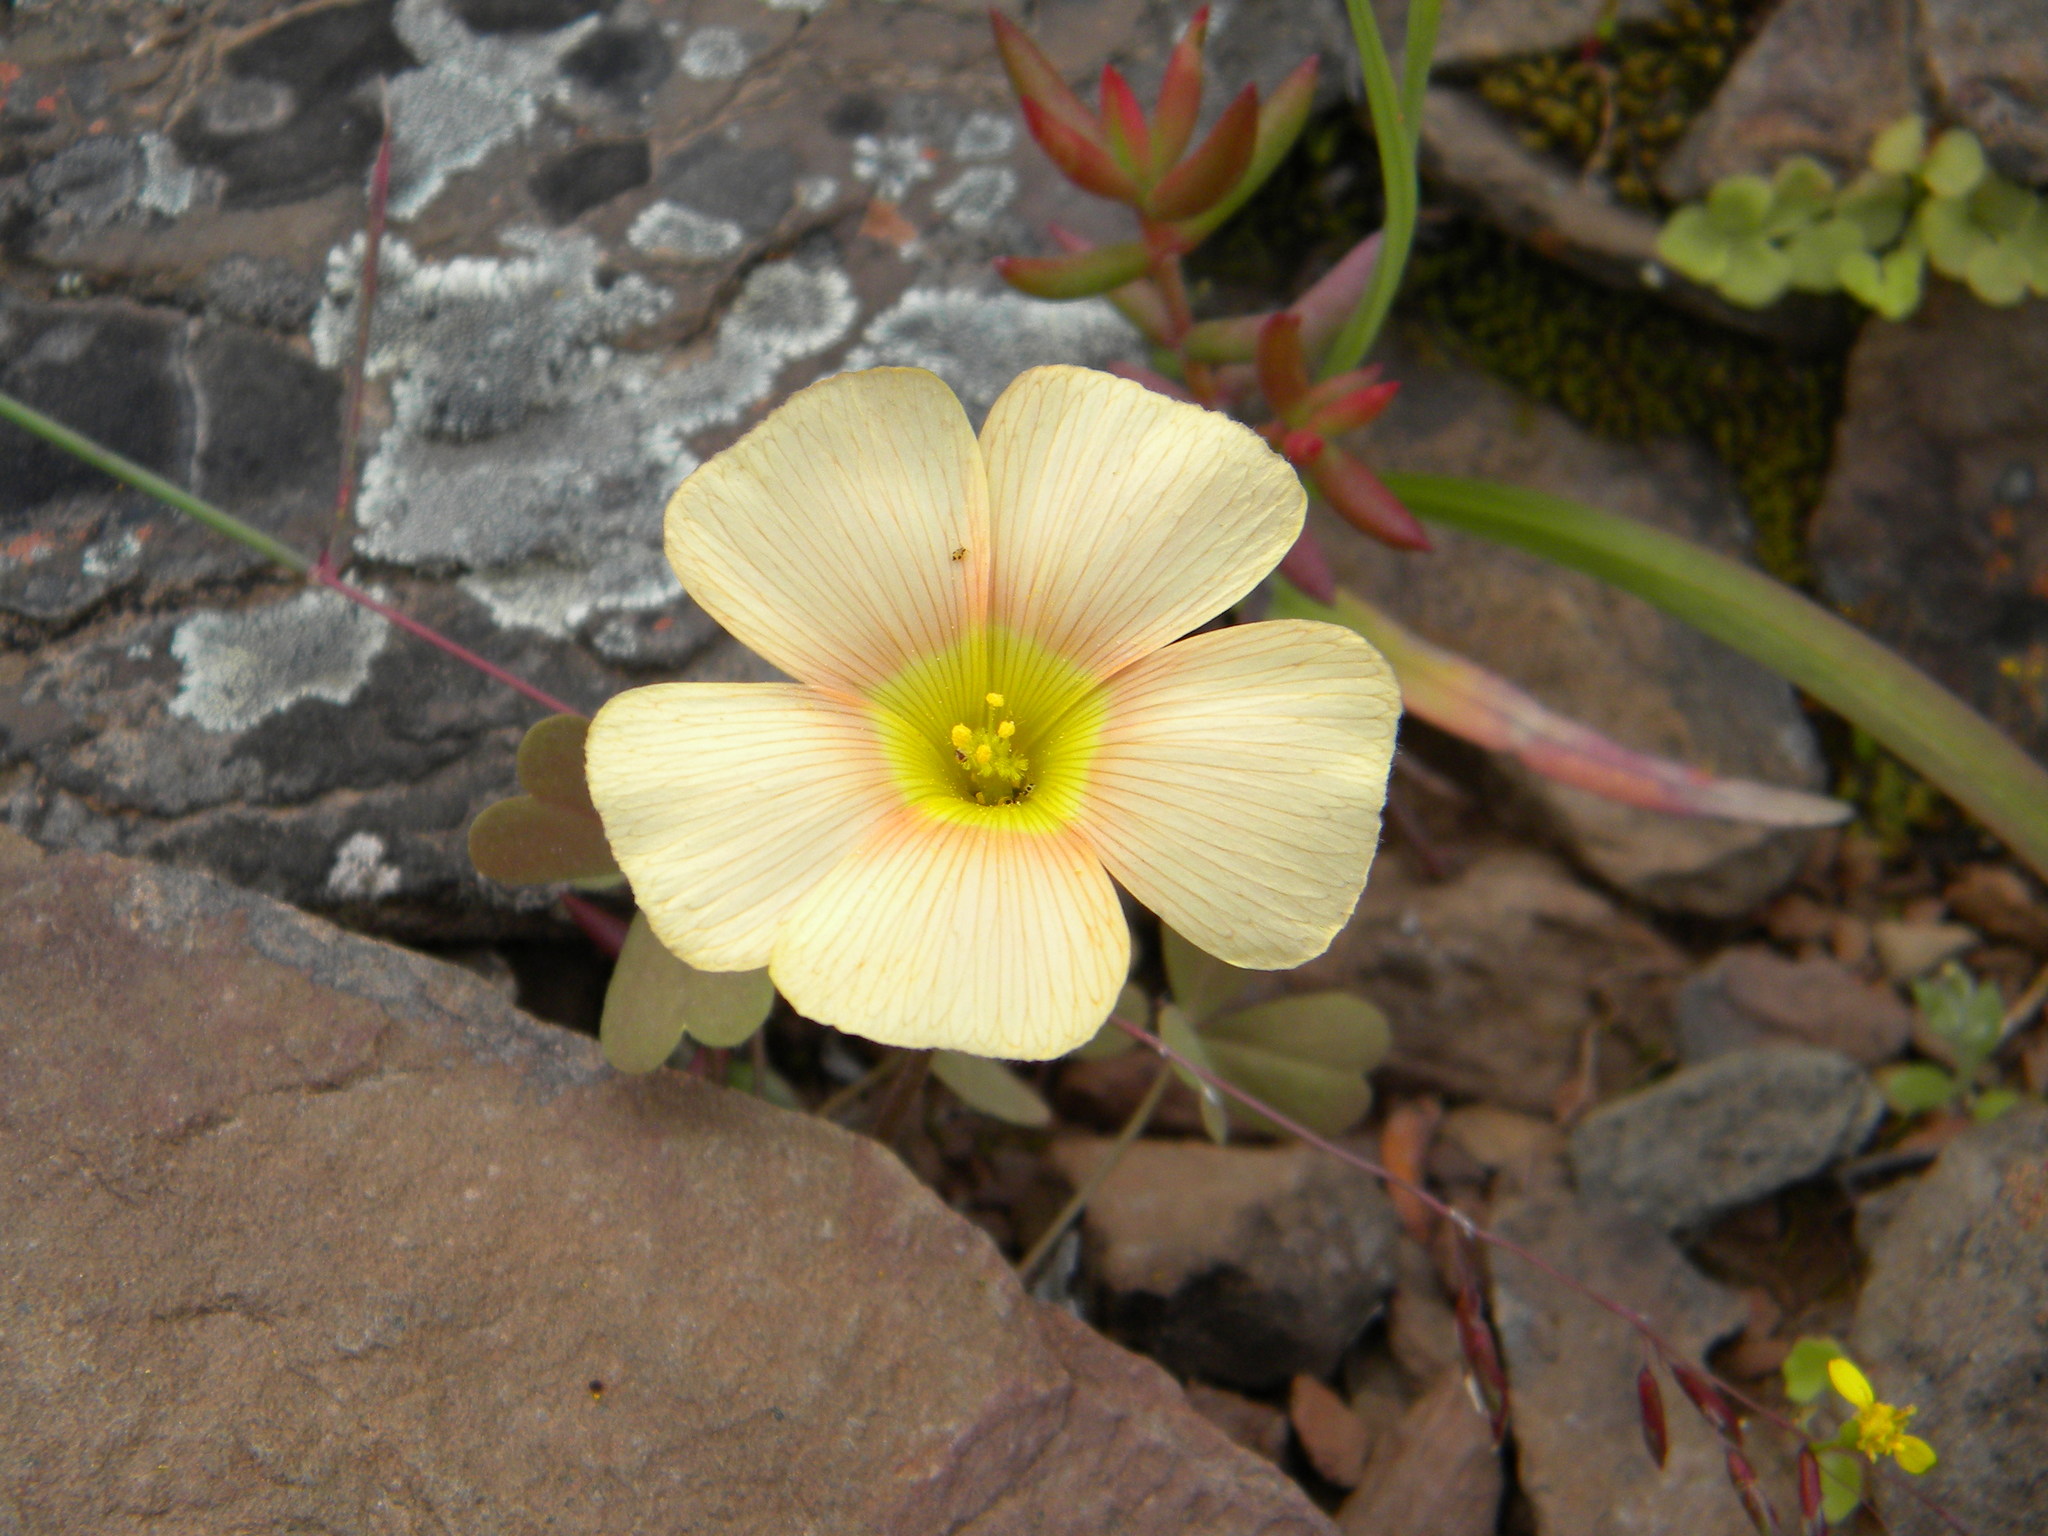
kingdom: Plantae
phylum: Tracheophyta
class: Magnoliopsida
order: Oxalidales
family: Oxalidaceae
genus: Oxalis
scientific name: Oxalis obtusa
